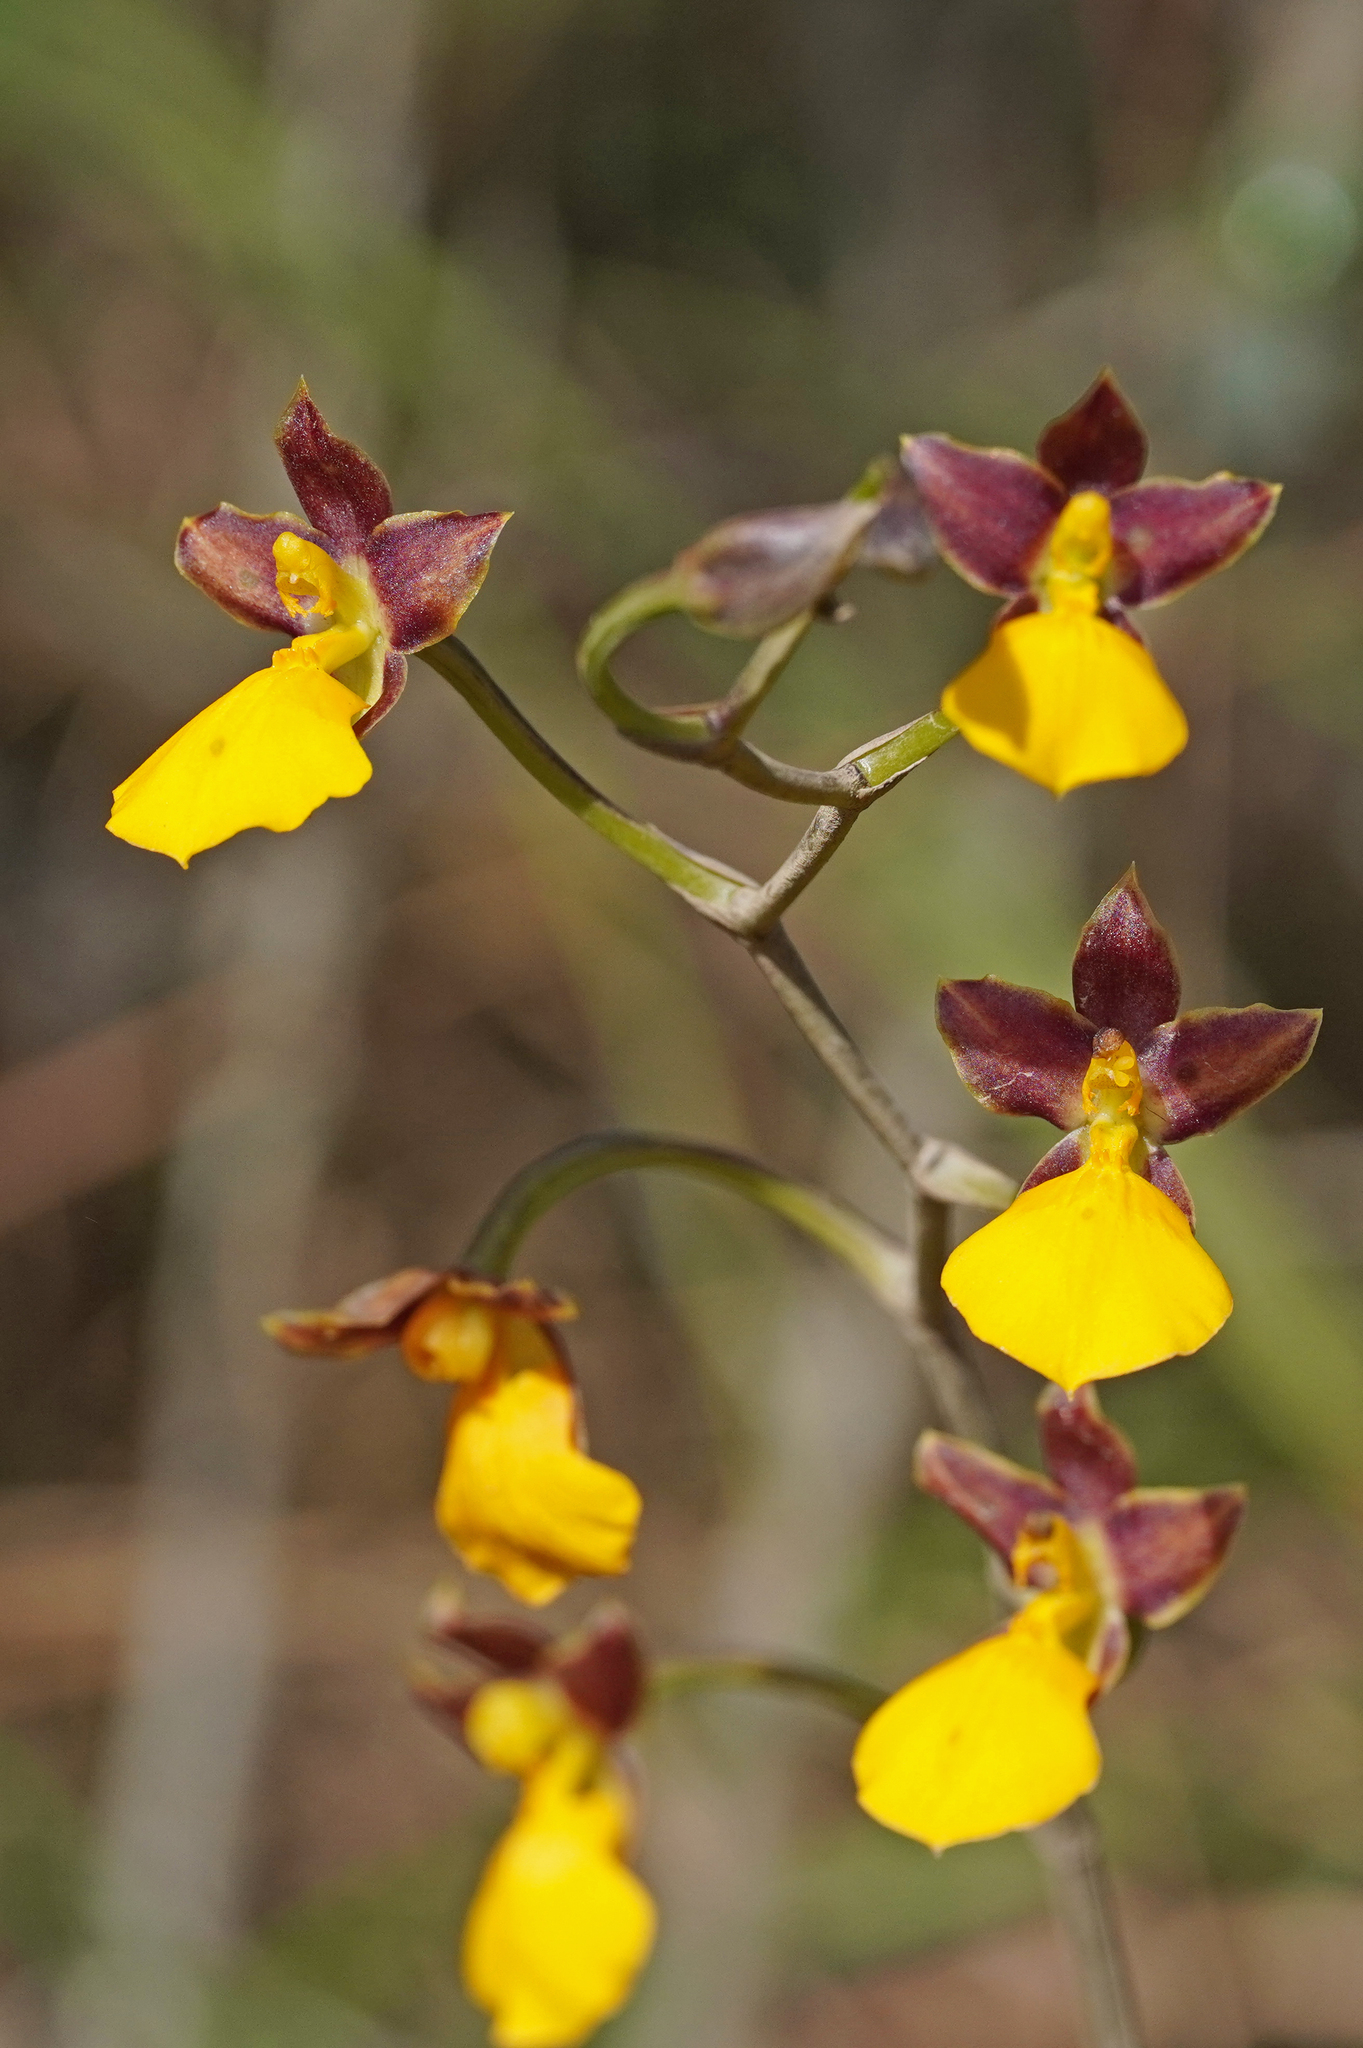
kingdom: Plantae
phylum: Tracheophyta
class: Liliopsida
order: Asparagales
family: Orchidaceae
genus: Cyrtochilum
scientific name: Cyrtochilum aureum
